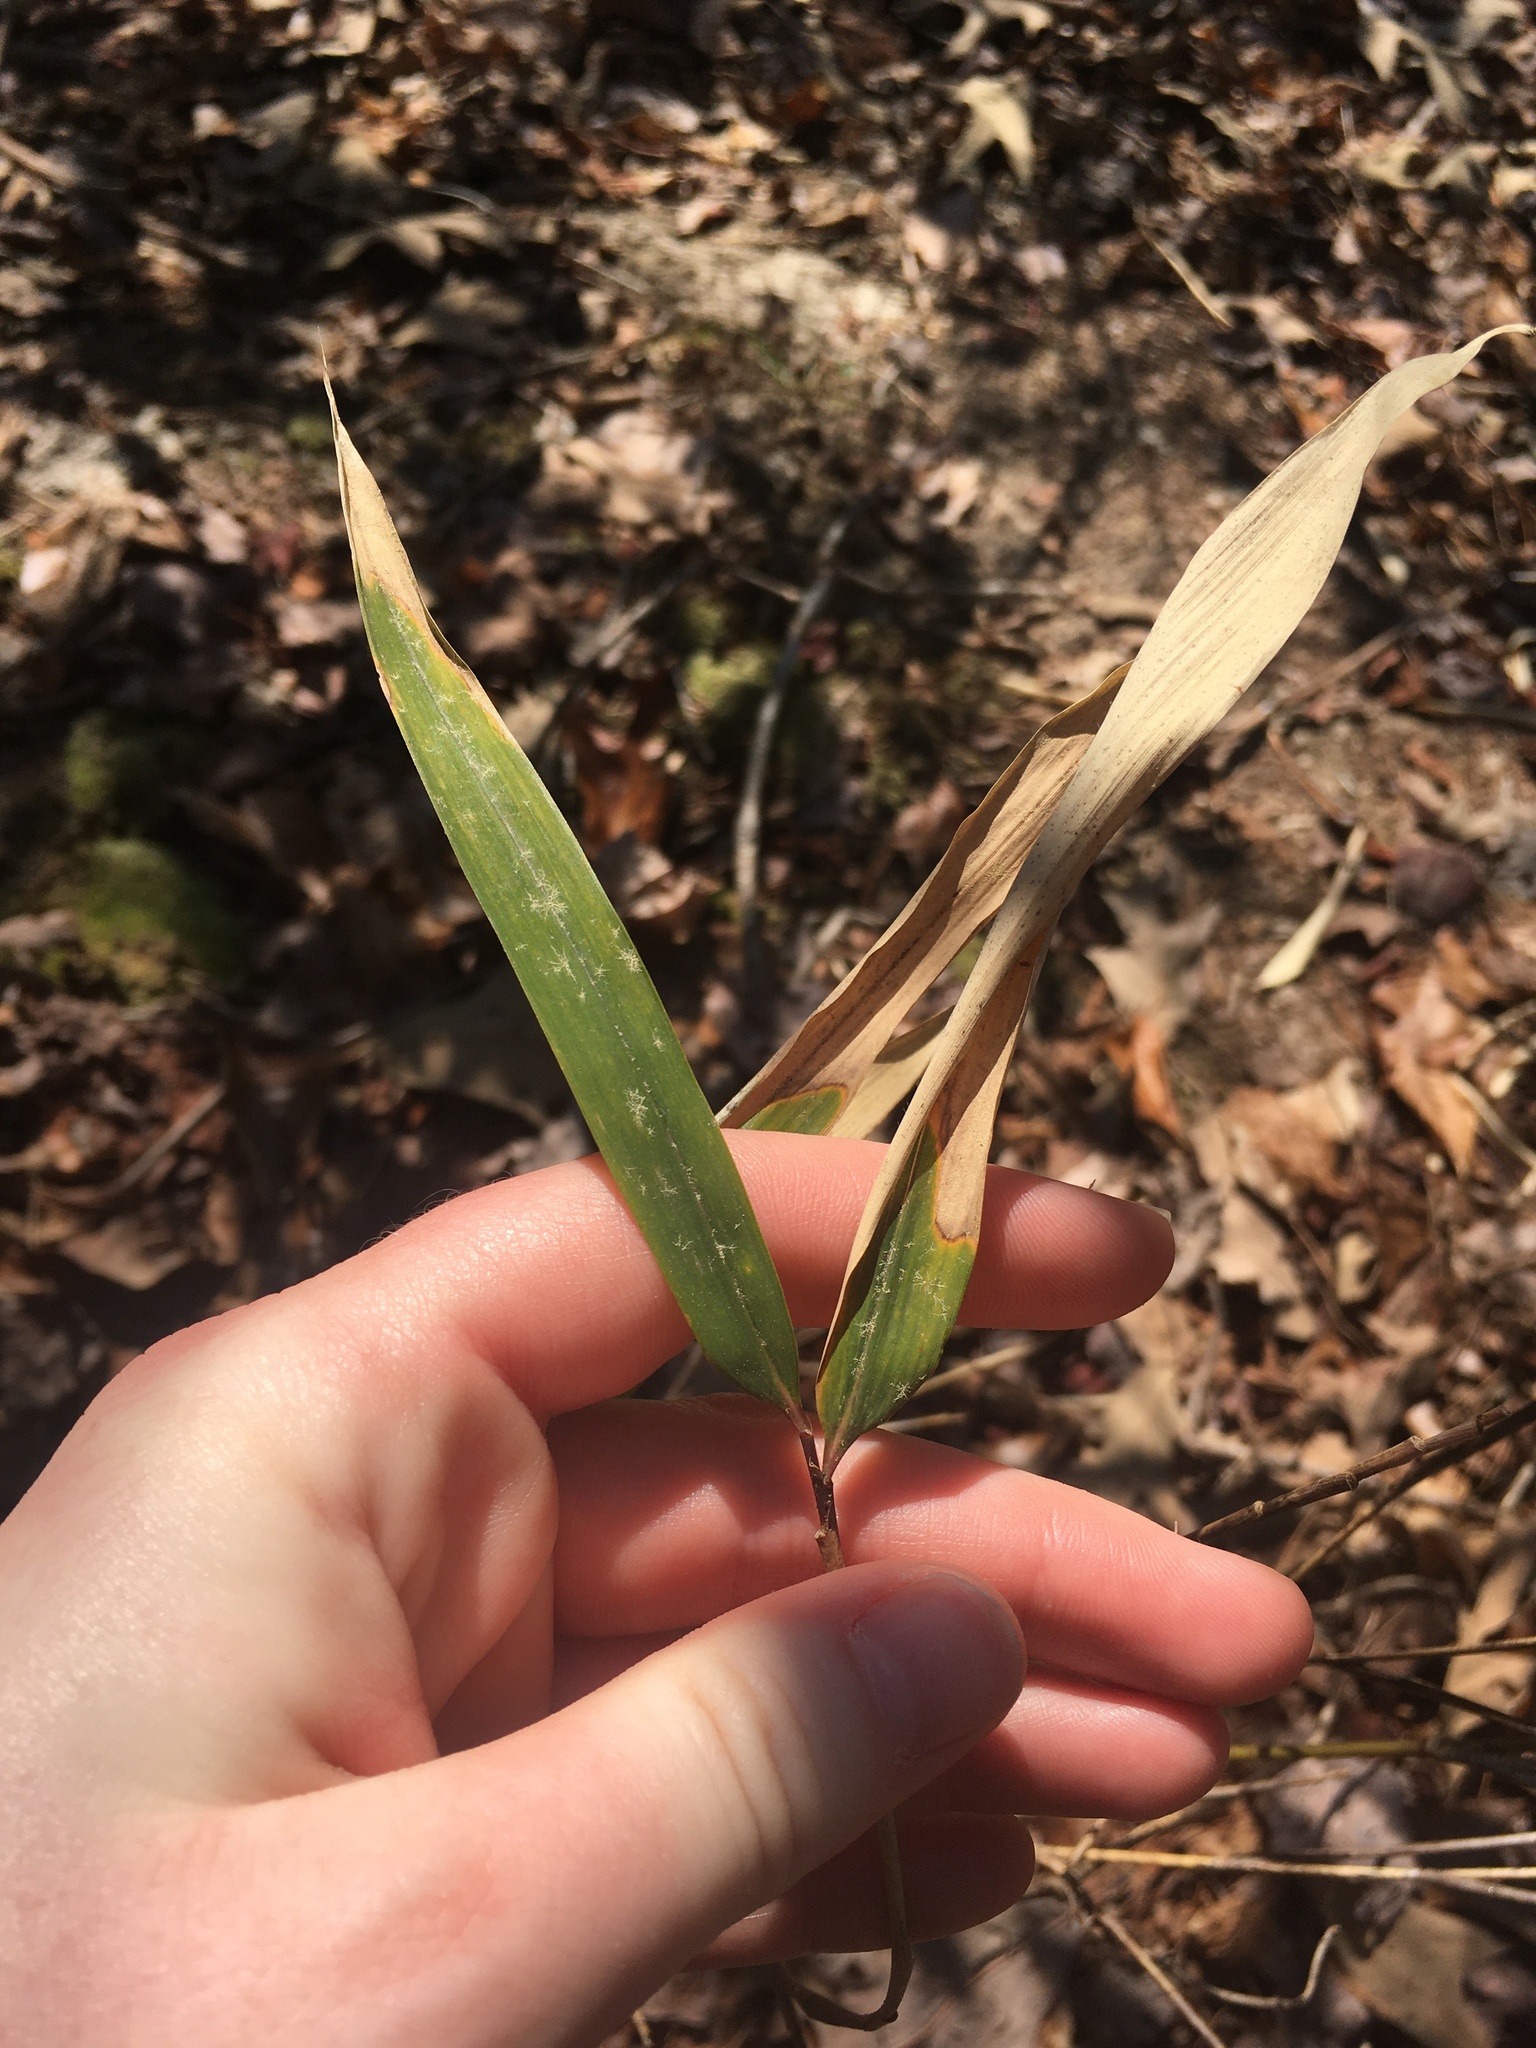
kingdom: Plantae
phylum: Tracheophyta
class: Liliopsida
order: Poales
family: Poaceae
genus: Arundinaria
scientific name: Arundinaria appalachiana
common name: Hill cane
